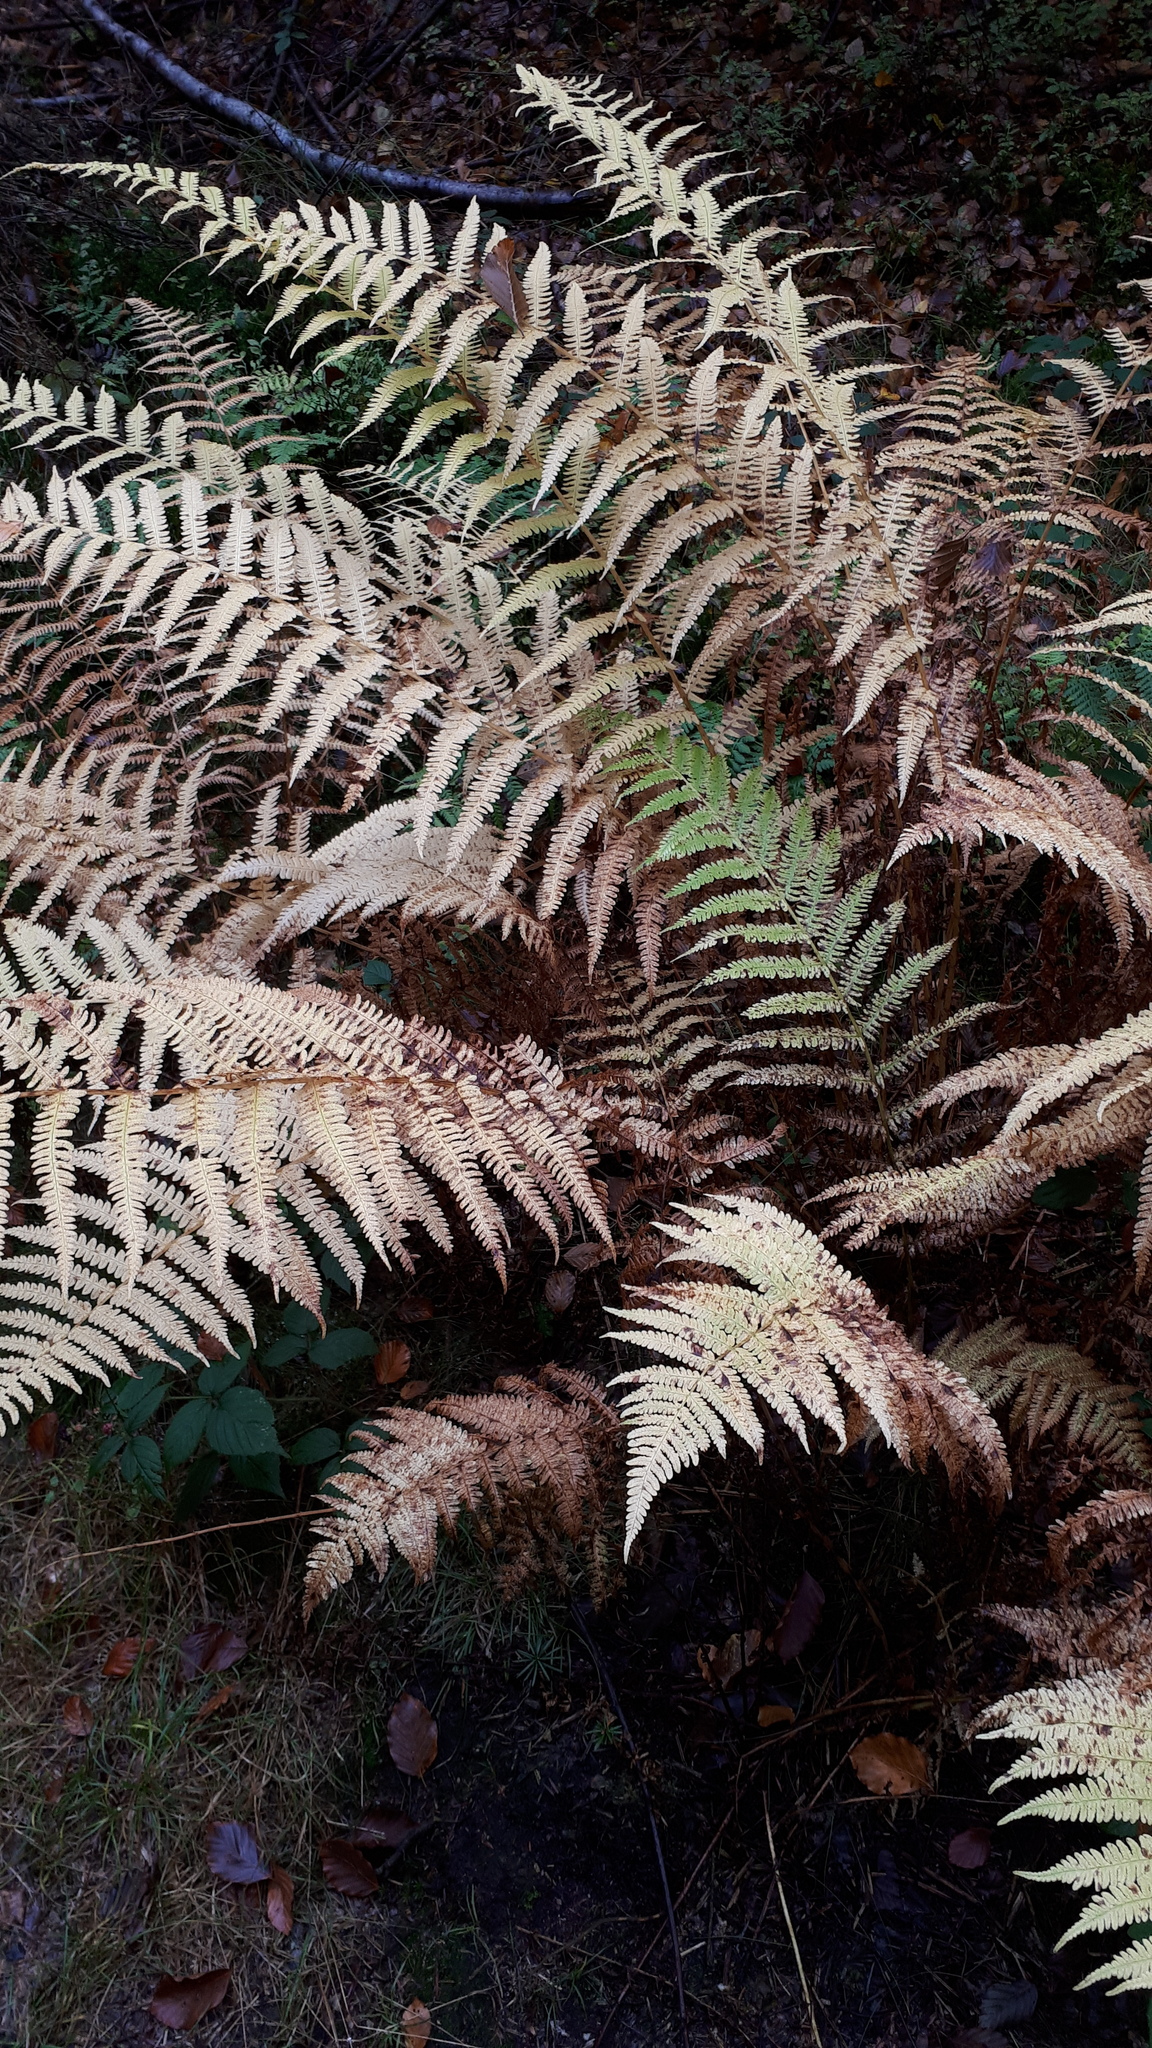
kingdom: Plantae
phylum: Tracheophyta
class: Polypodiopsida
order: Polypodiales
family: Thelypteridaceae
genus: Oreopteris
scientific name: Oreopteris limbosperma
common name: Lemon-scented fern
